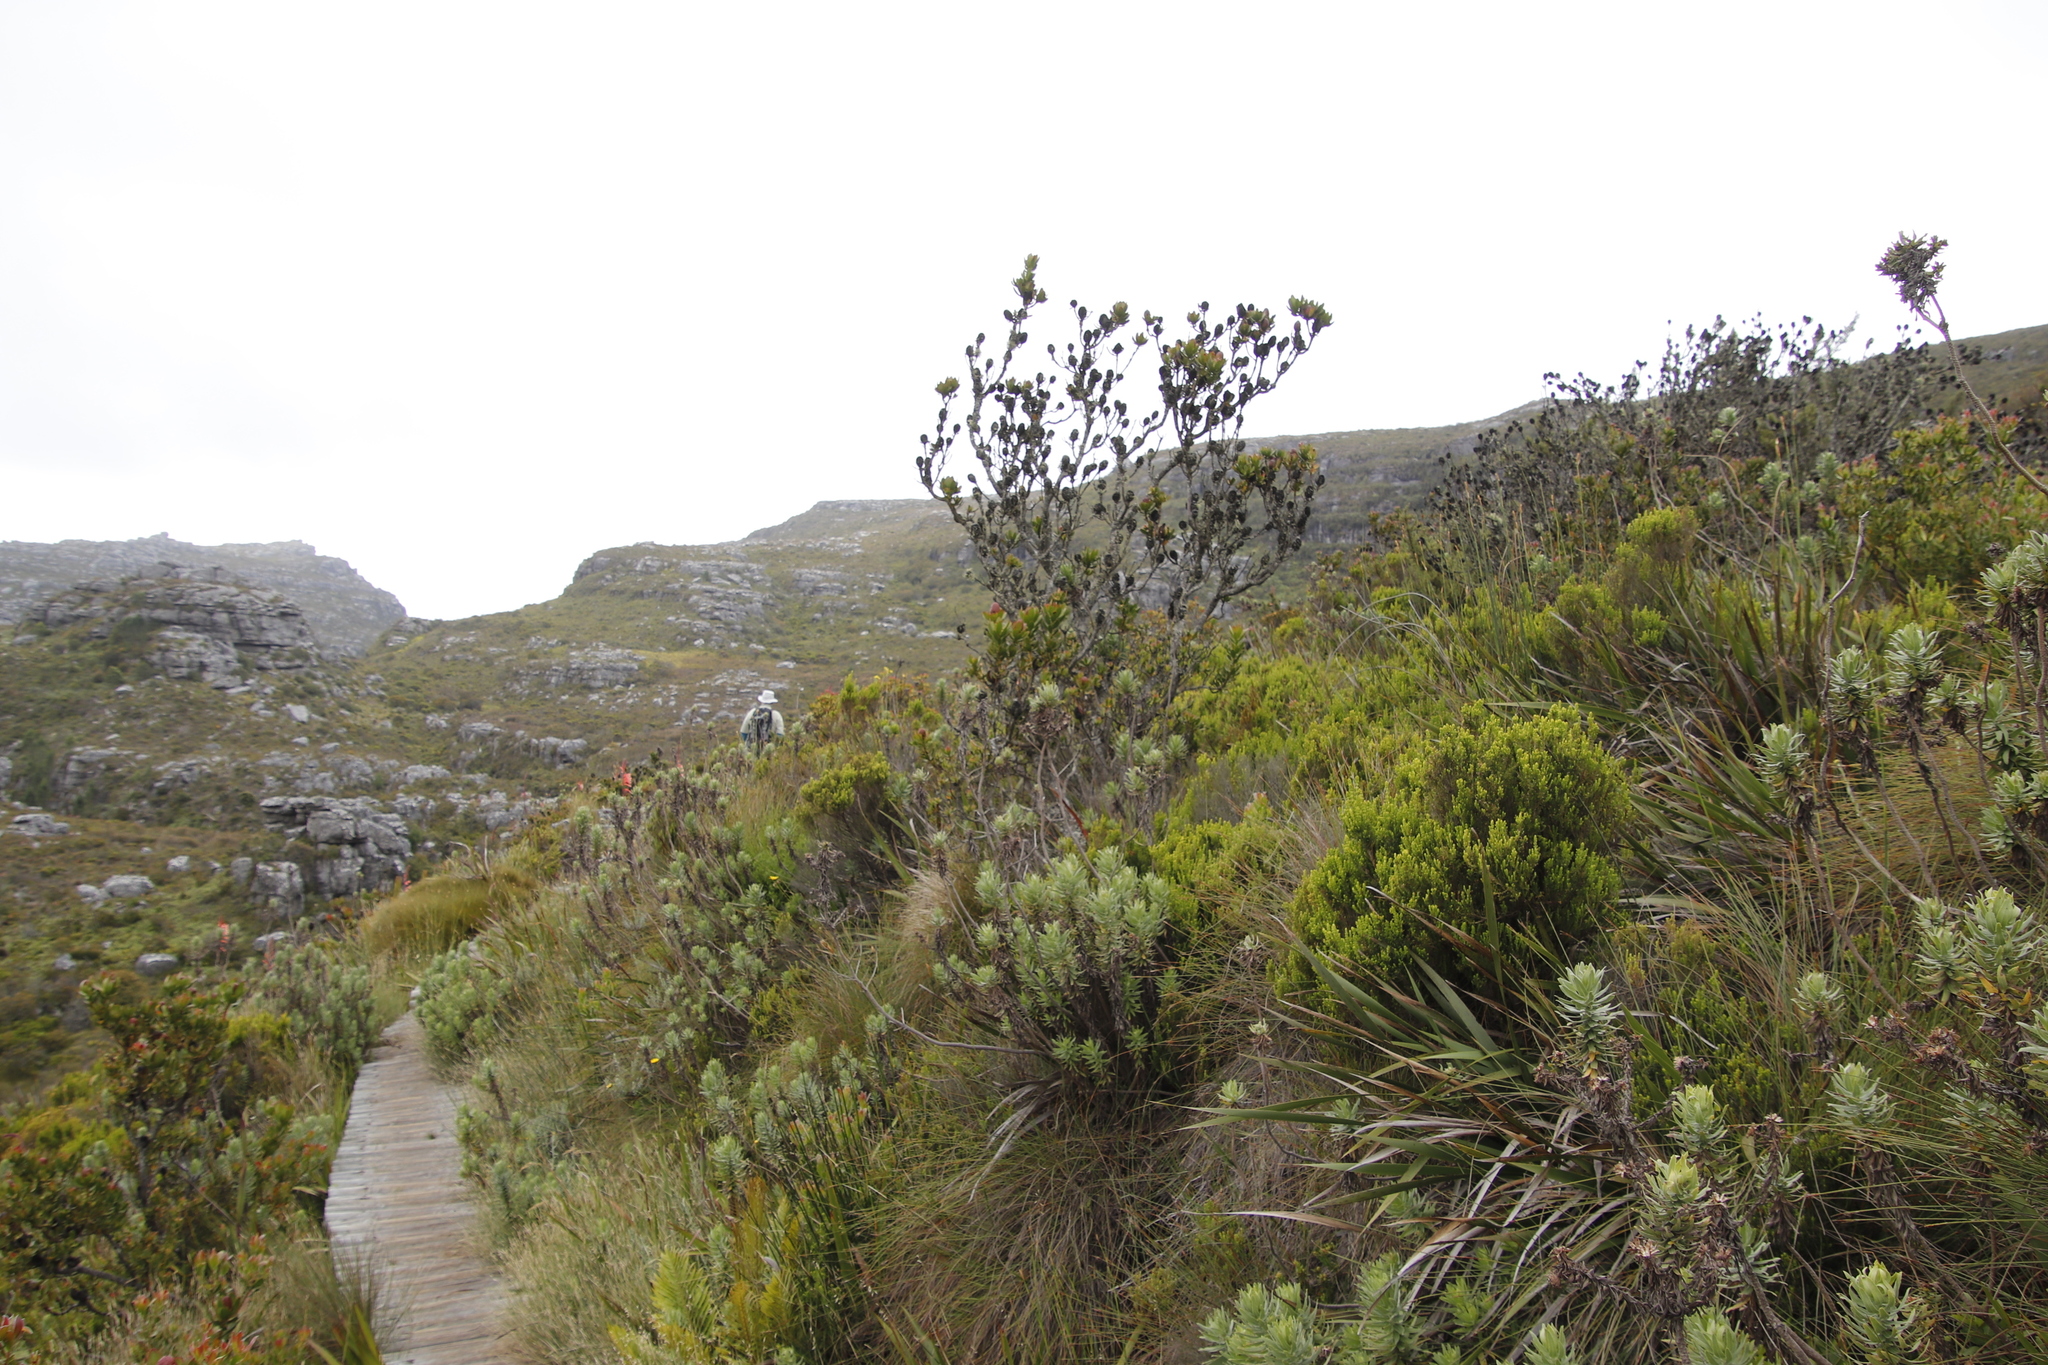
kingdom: Plantae
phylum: Tracheophyta
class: Magnoliopsida
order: Proteales
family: Proteaceae
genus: Leucadendron
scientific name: Leucadendron strobilinum
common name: Mountain rose
